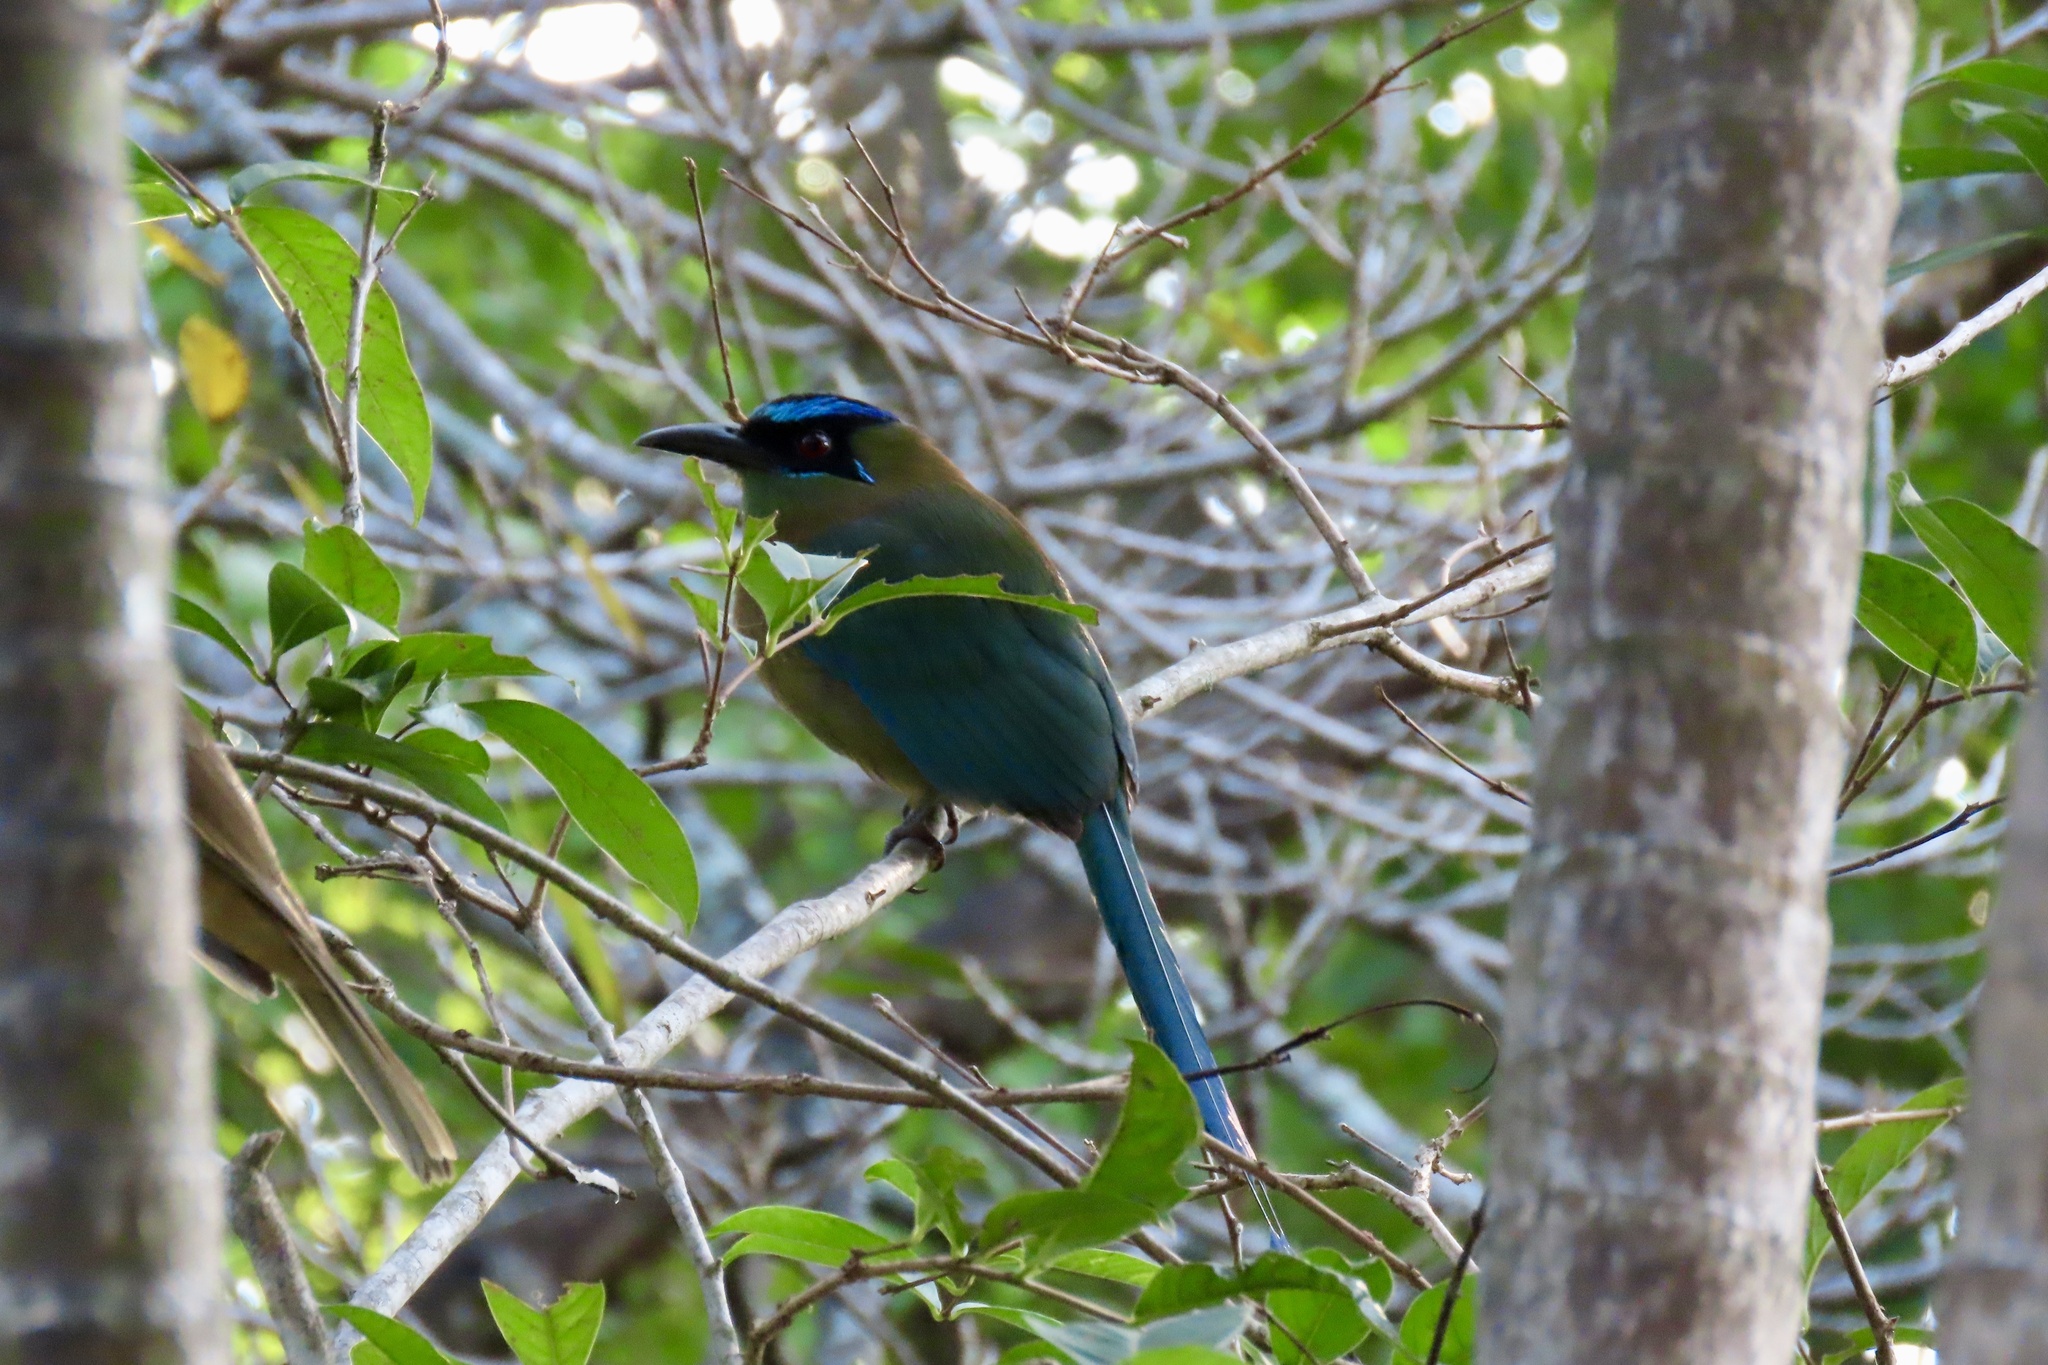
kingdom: Animalia
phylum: Chordata
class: Aves
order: Coraciiformes
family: Momotidae
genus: Momotus
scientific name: Momotus lessonii
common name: Lesson's motmot
